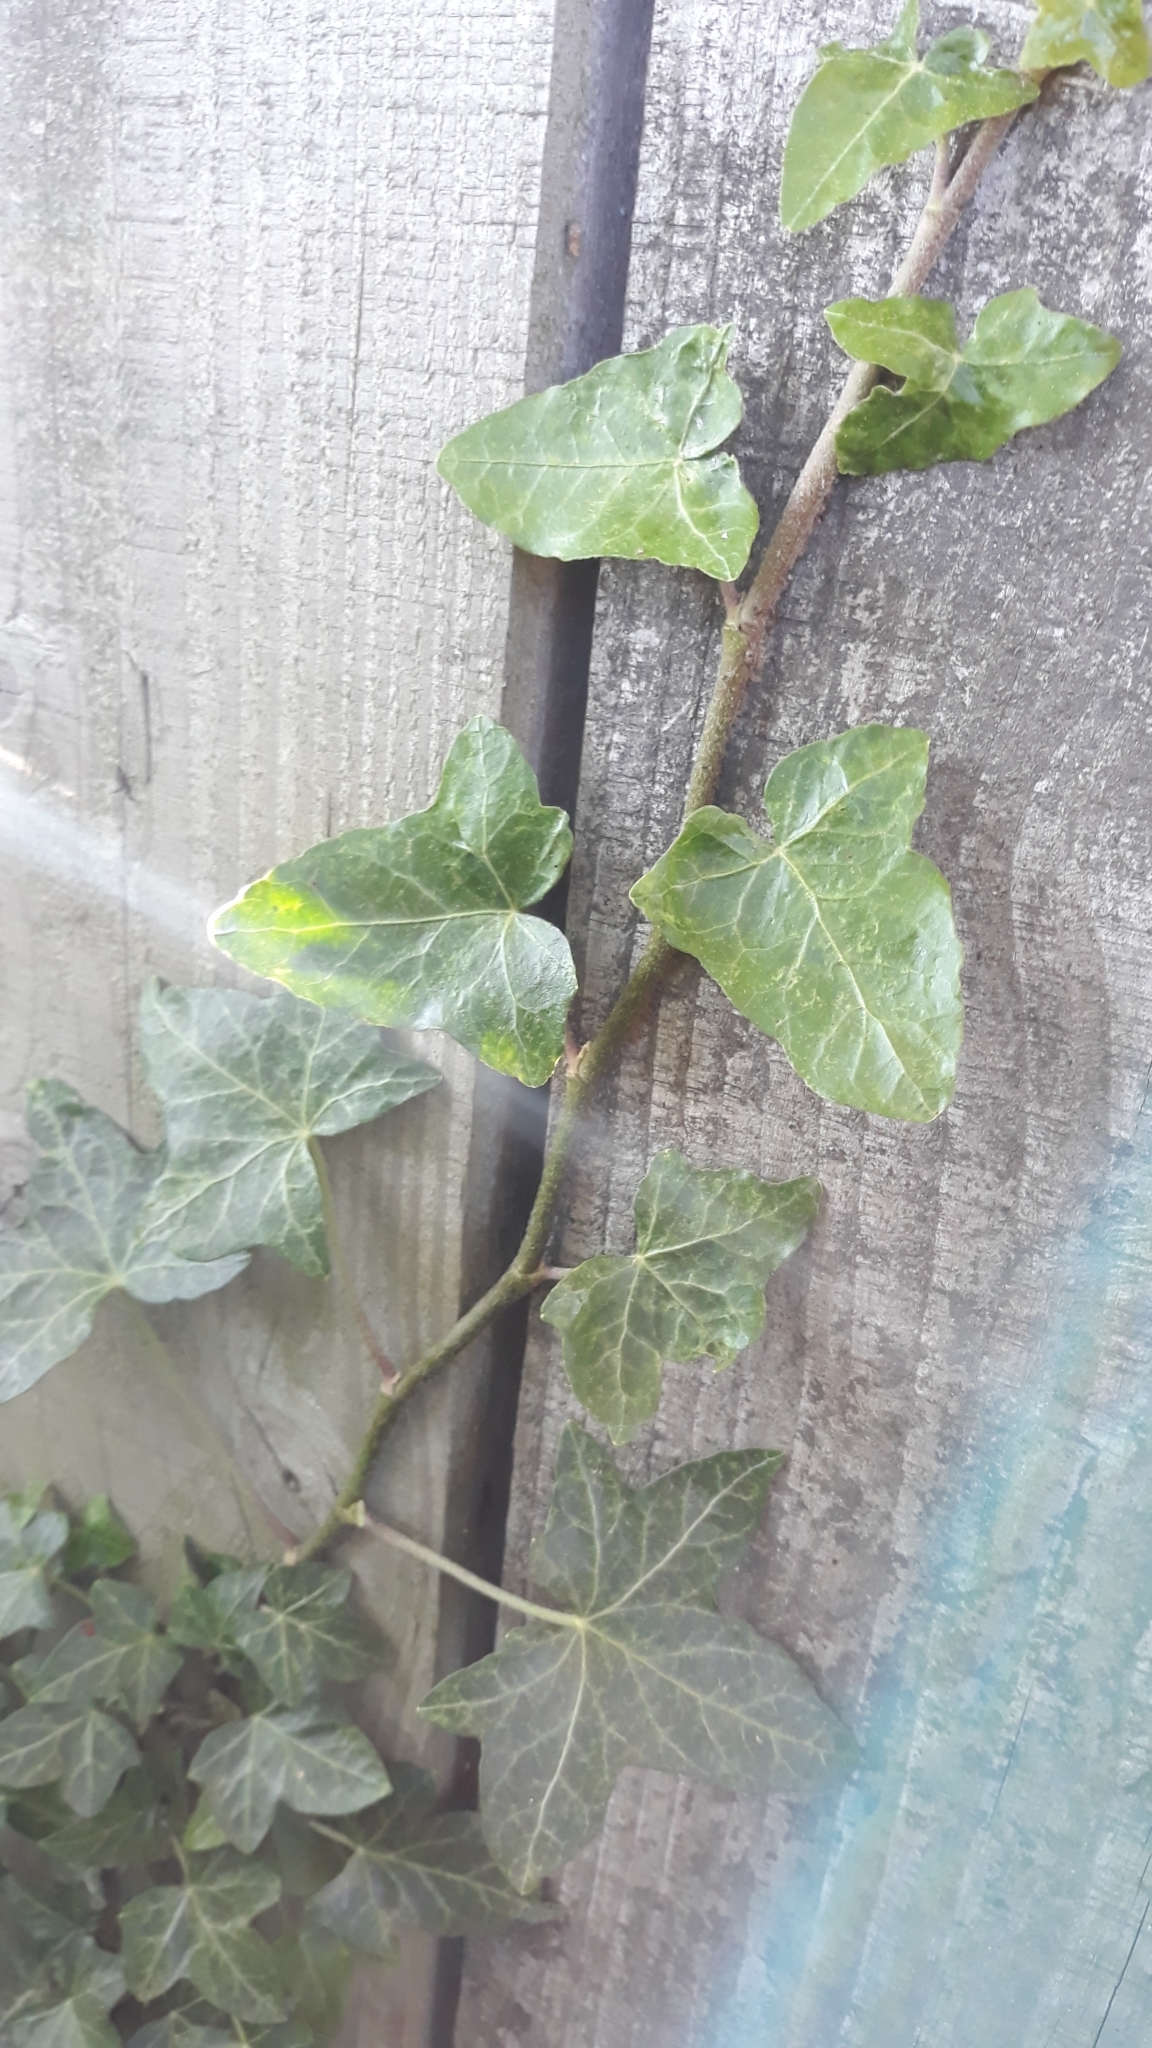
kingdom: Plantae
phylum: Tracheophyta
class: Magnoliopsida
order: Apiales
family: Araliaceae
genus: Hedera
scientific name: Hedera helix
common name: Ivy
